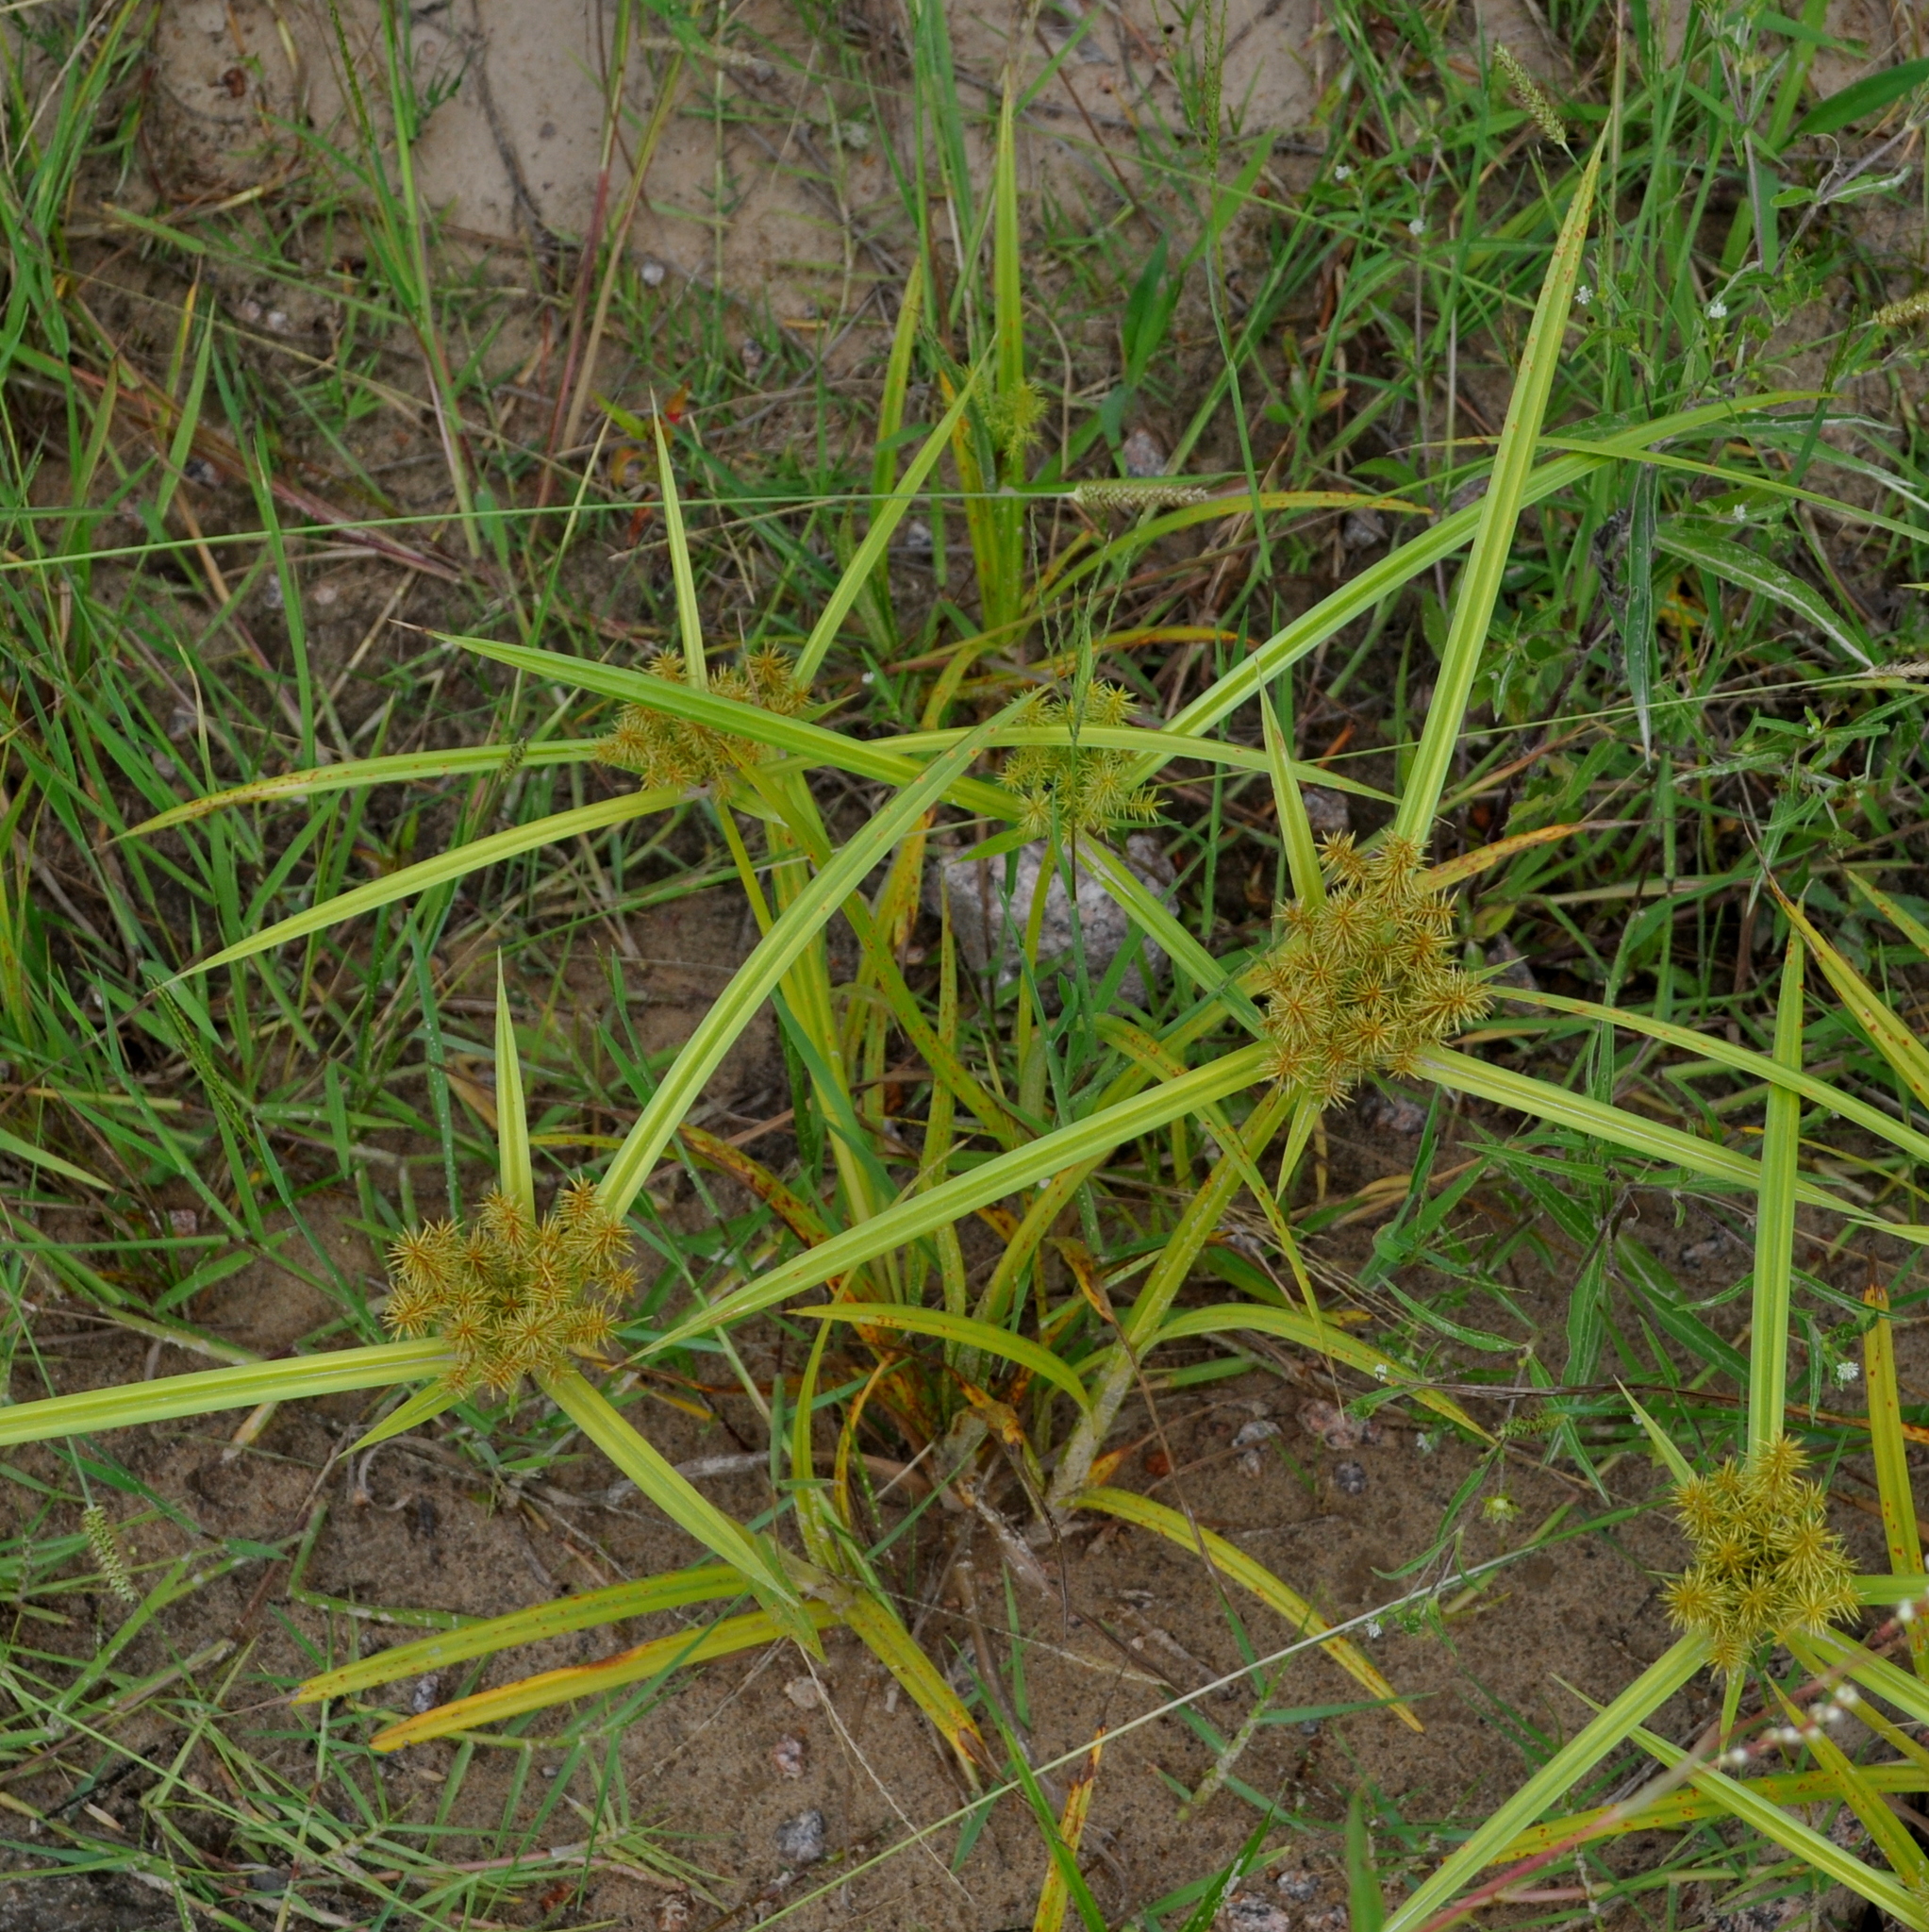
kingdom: Plantae
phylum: Tracheophyta
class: Liliopsida
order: Poales
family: Cyperaceae
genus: Cyperus
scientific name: Cyperus odoratus
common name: Fragrant flatsedge
